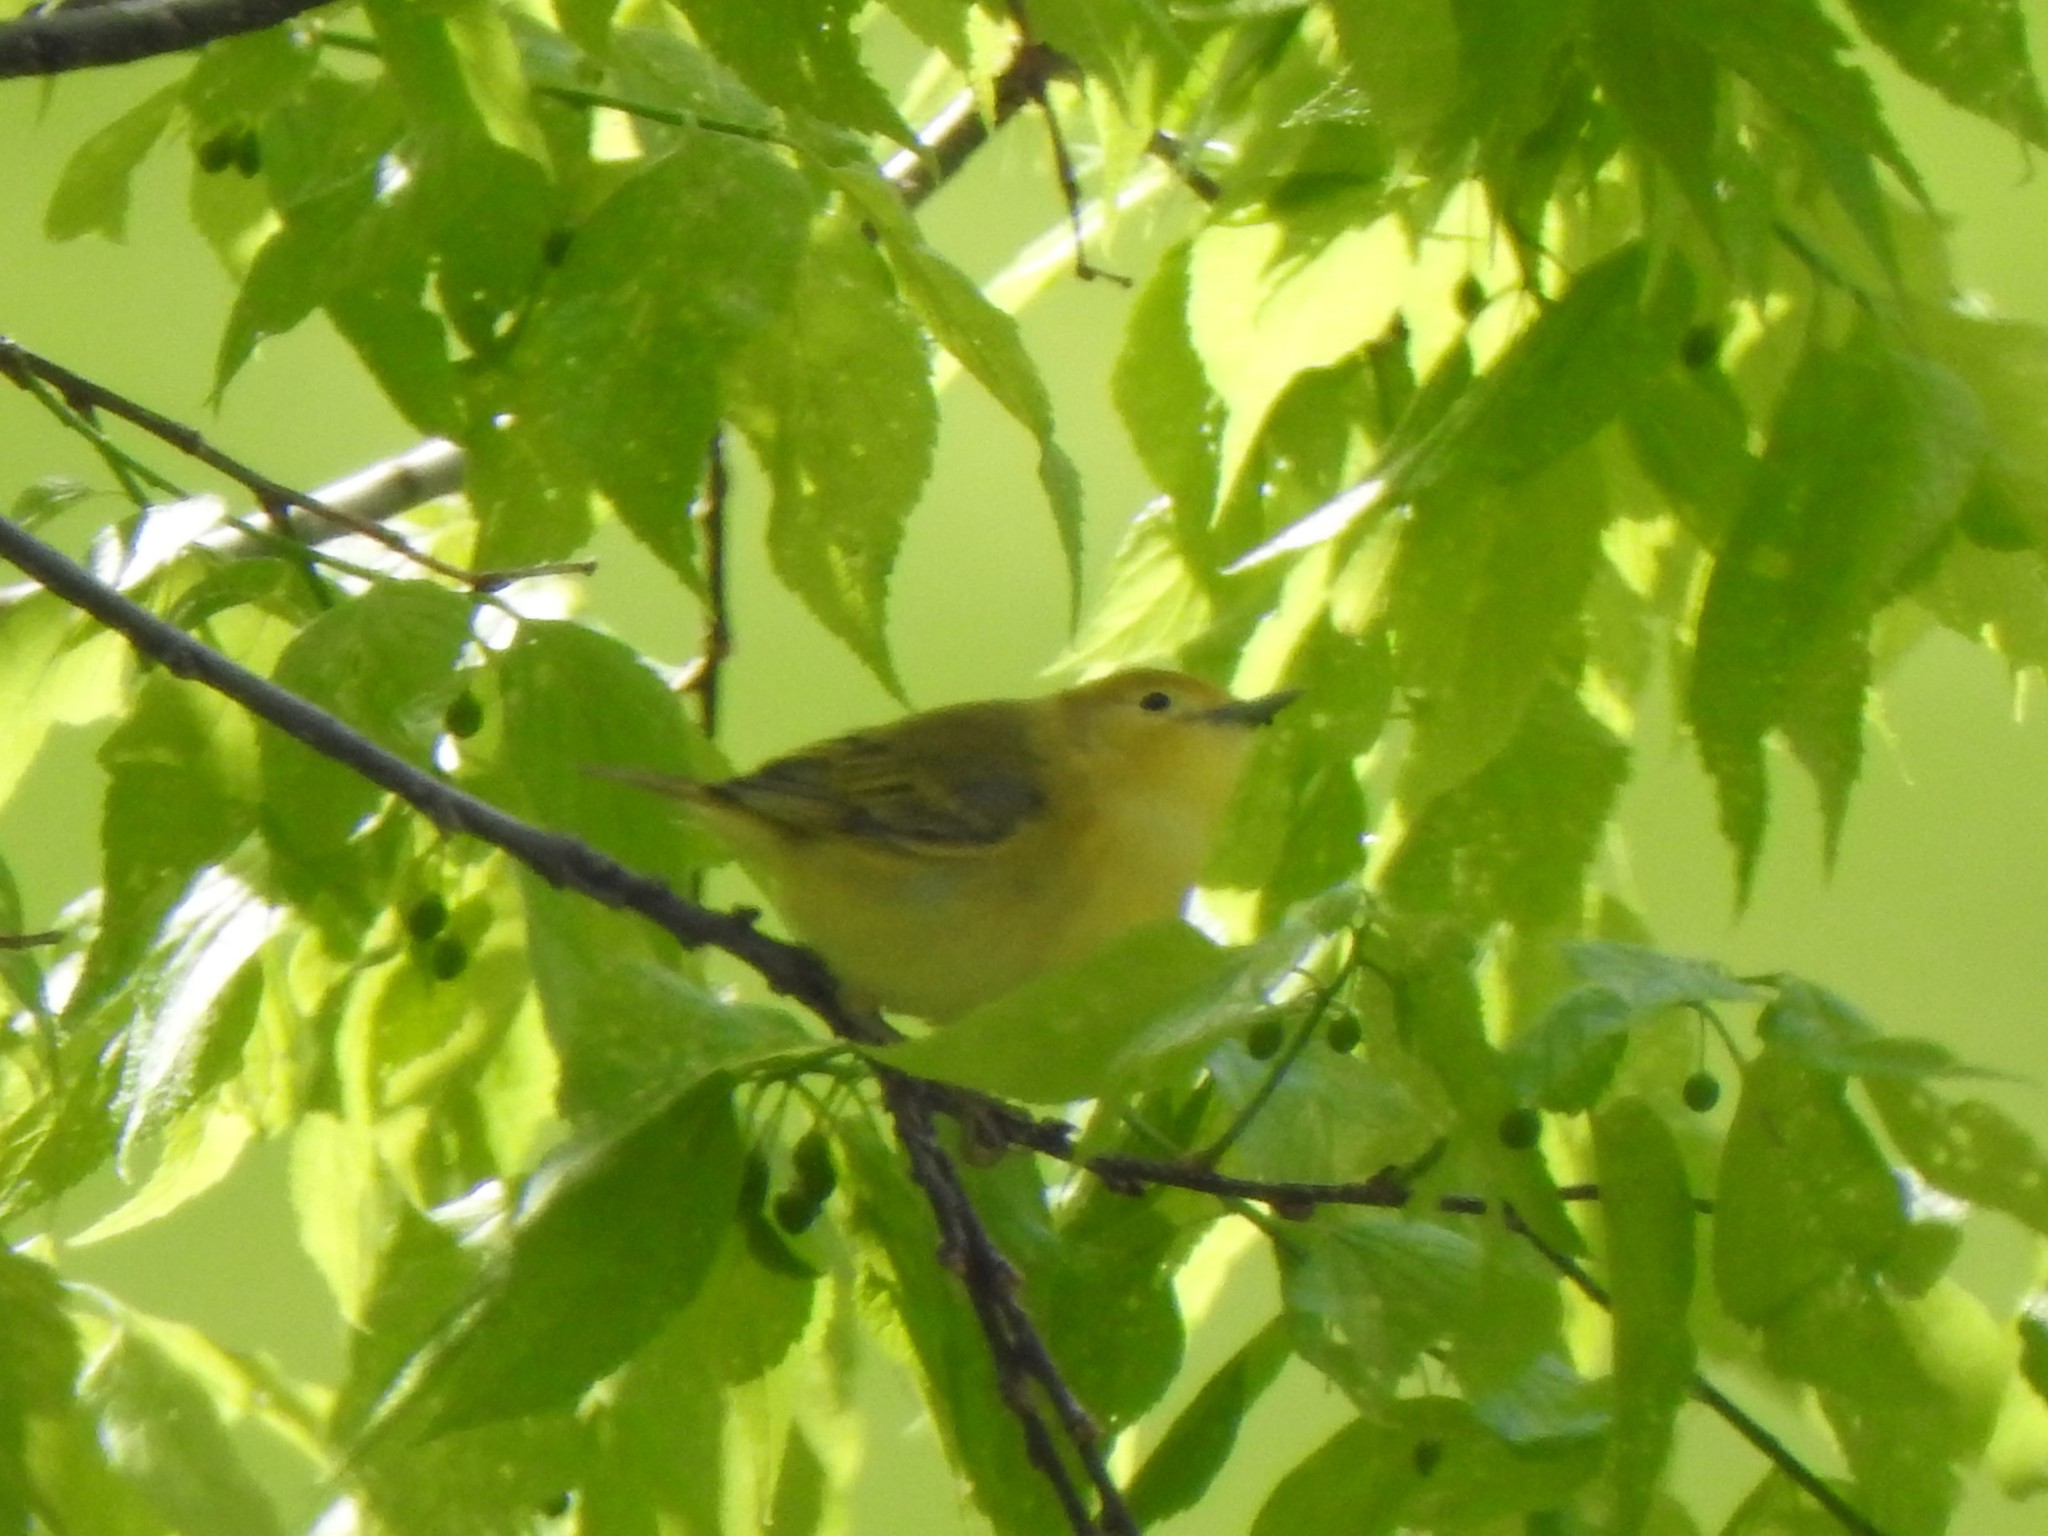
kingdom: Animalia
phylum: Chordata
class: Aves
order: Passeriformes
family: Parulidae
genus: Setophaga
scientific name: Setophaga petechia
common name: Yellow warbler
